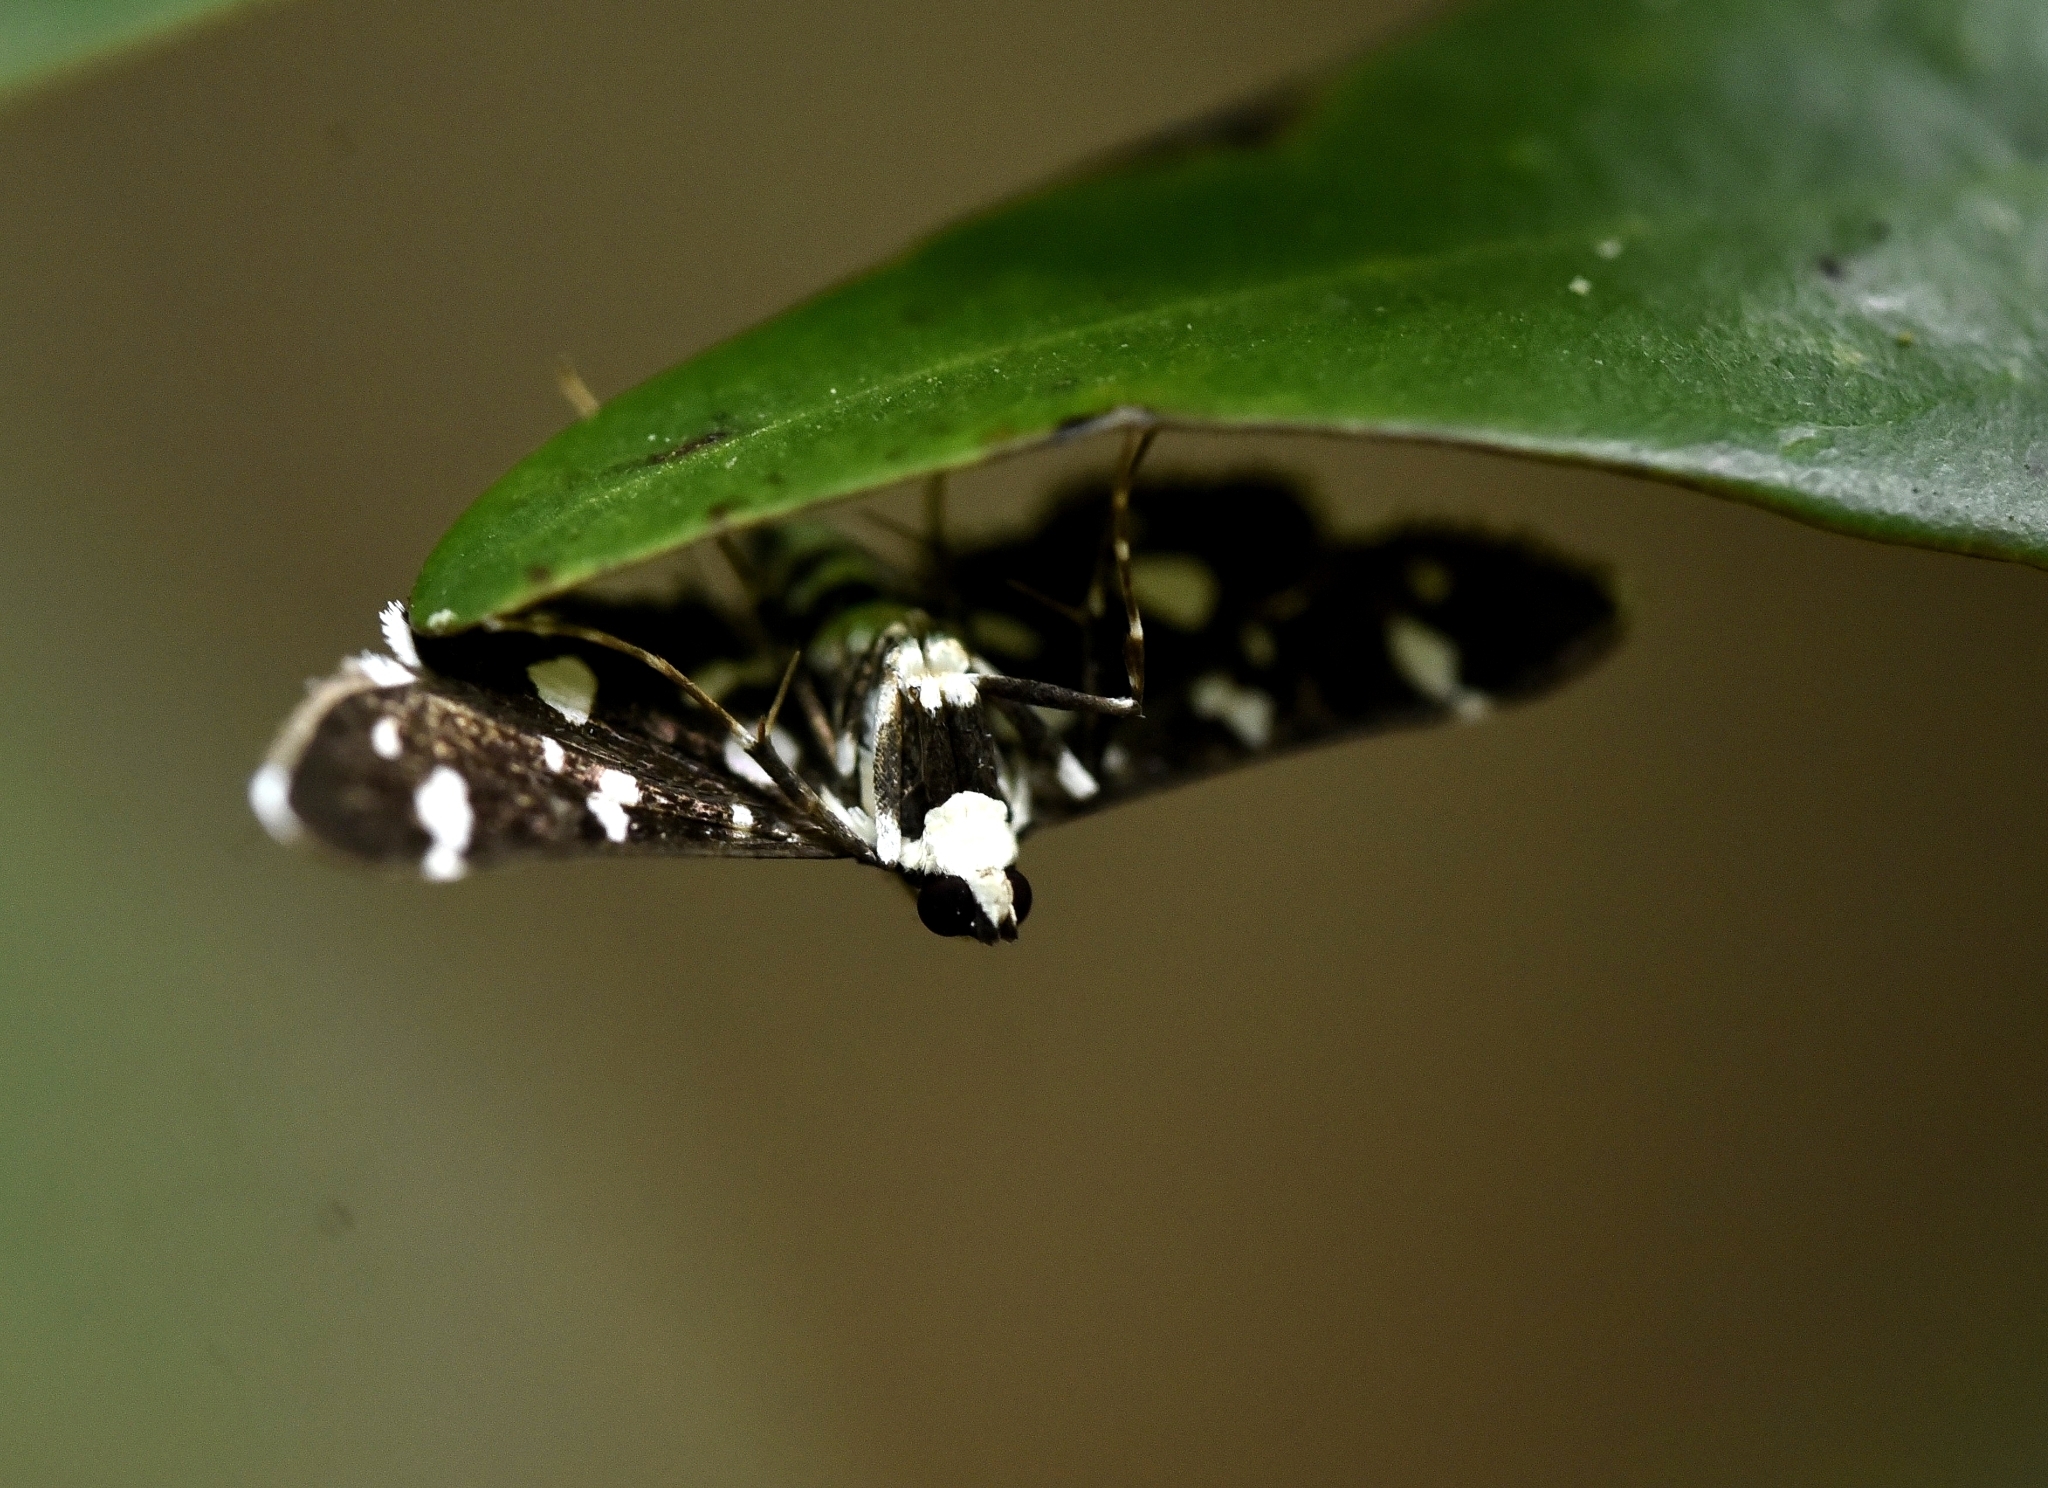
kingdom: Animalia
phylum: Arthropoda
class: Insecta
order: Lepidoptera
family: Crambidae
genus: Bocchoris
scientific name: Bocchoris inspersalis
